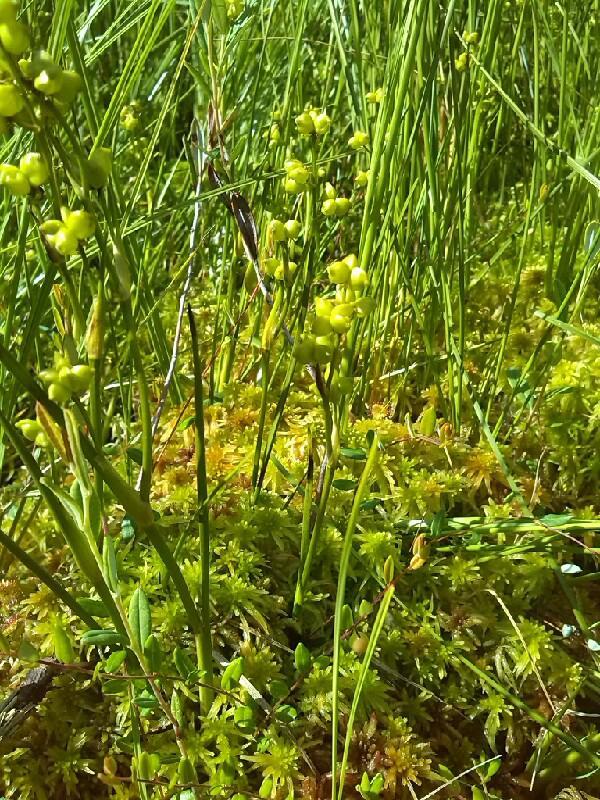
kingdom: Plantae
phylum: Tracheophyta
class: Liliopsida
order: Alismatales
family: Scheuchzeriaceae
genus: Scheuchzeria
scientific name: Scheuchzeria palustris
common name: Rannoch-rush
